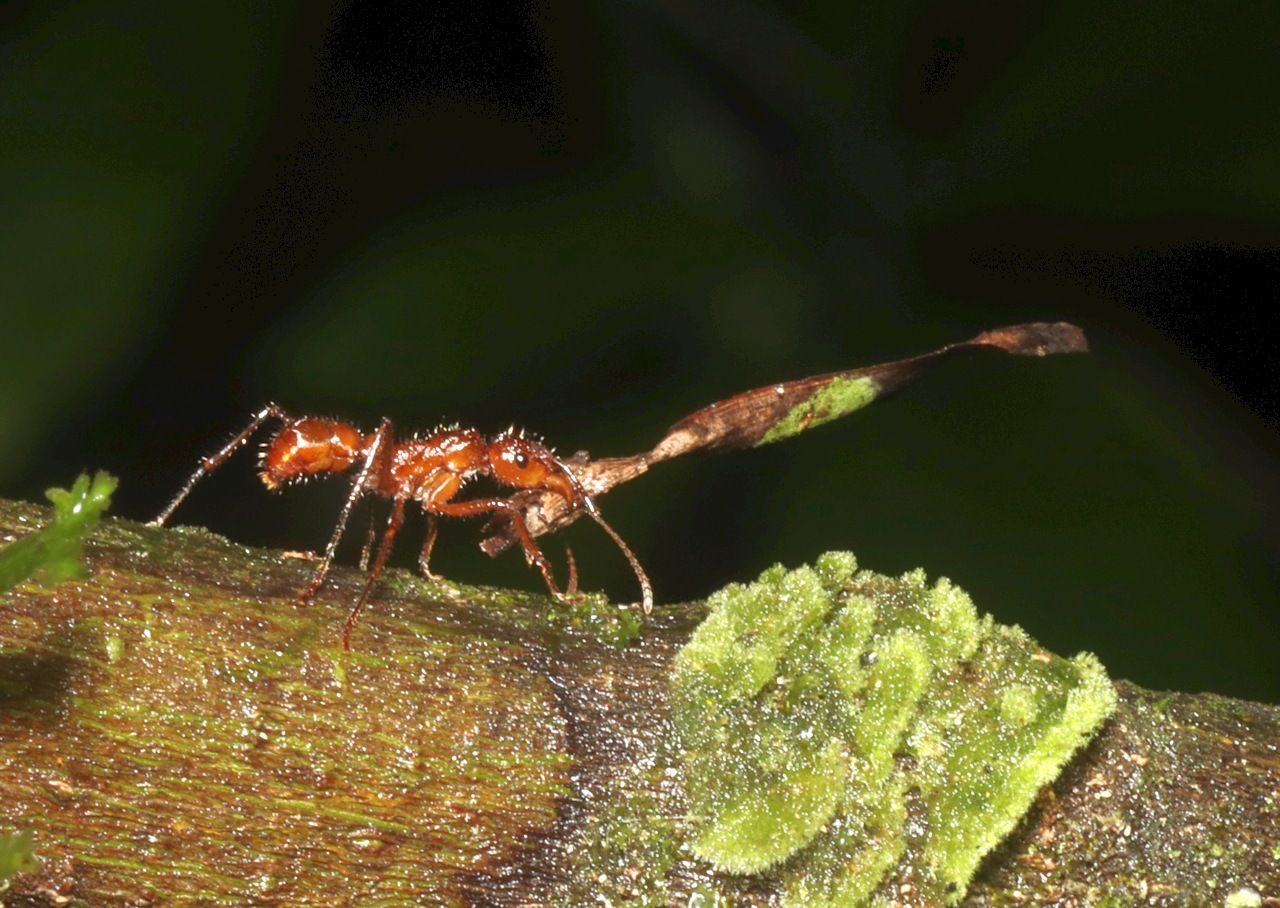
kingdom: Animalia
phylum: Arthropoda
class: Insecta
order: Hymenoptera
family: Formicidae
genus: Ectatomma
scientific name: Ectatomma tuberculatum
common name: Ant
